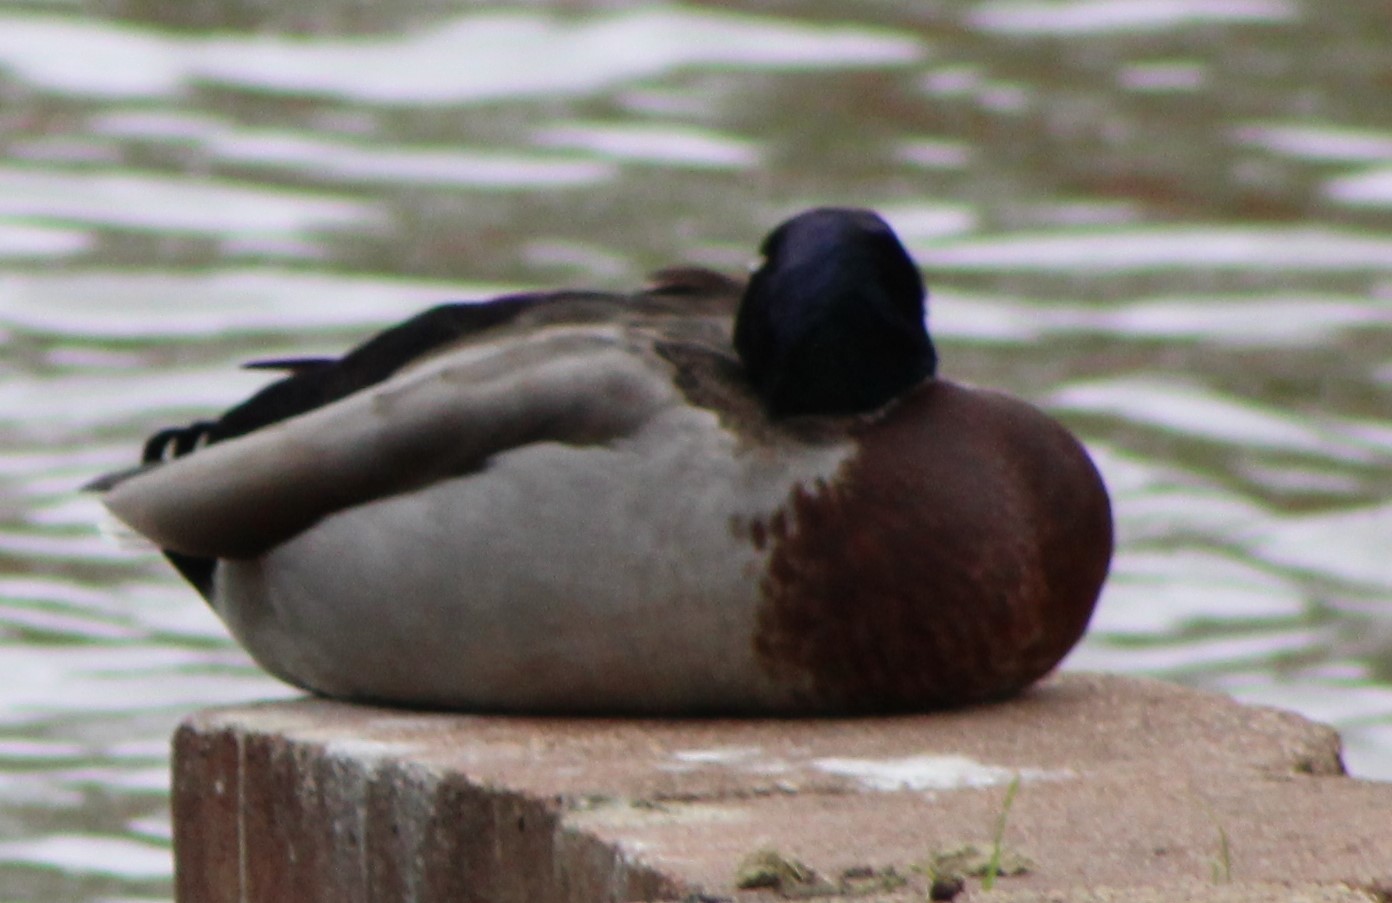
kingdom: Animalia
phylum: Chordata
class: Aves
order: Anseriformes
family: Anatidae
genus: Anas
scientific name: Anas platyrhynchos
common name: Mallard
